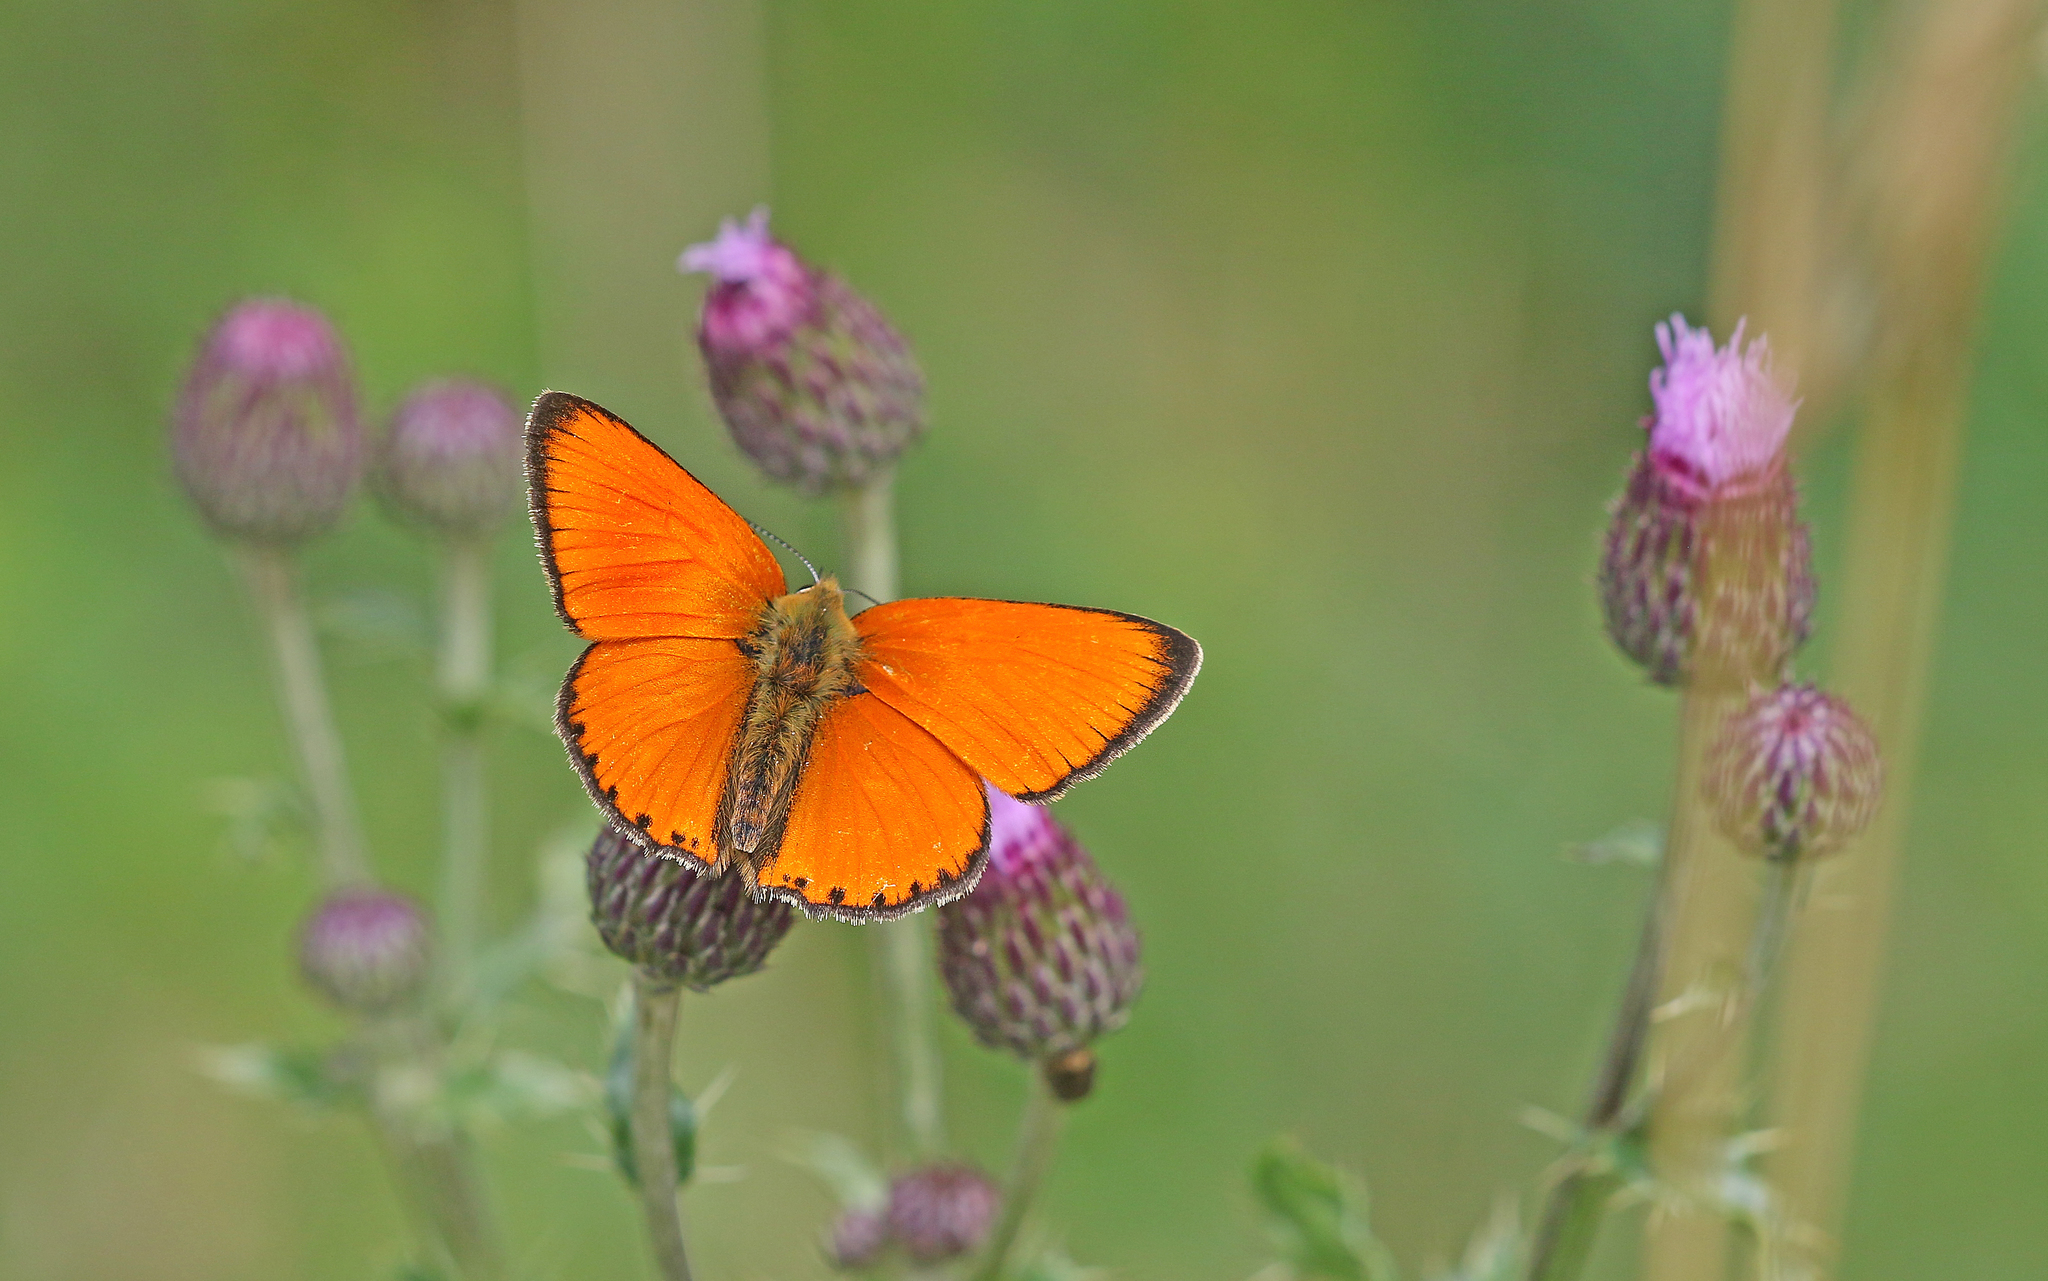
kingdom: Animalia
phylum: Arthropoda
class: Insecta
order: Lepidoptera
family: Lycaenidae
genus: Lycaena
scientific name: Lycaena virgaureae
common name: Scarce copper
